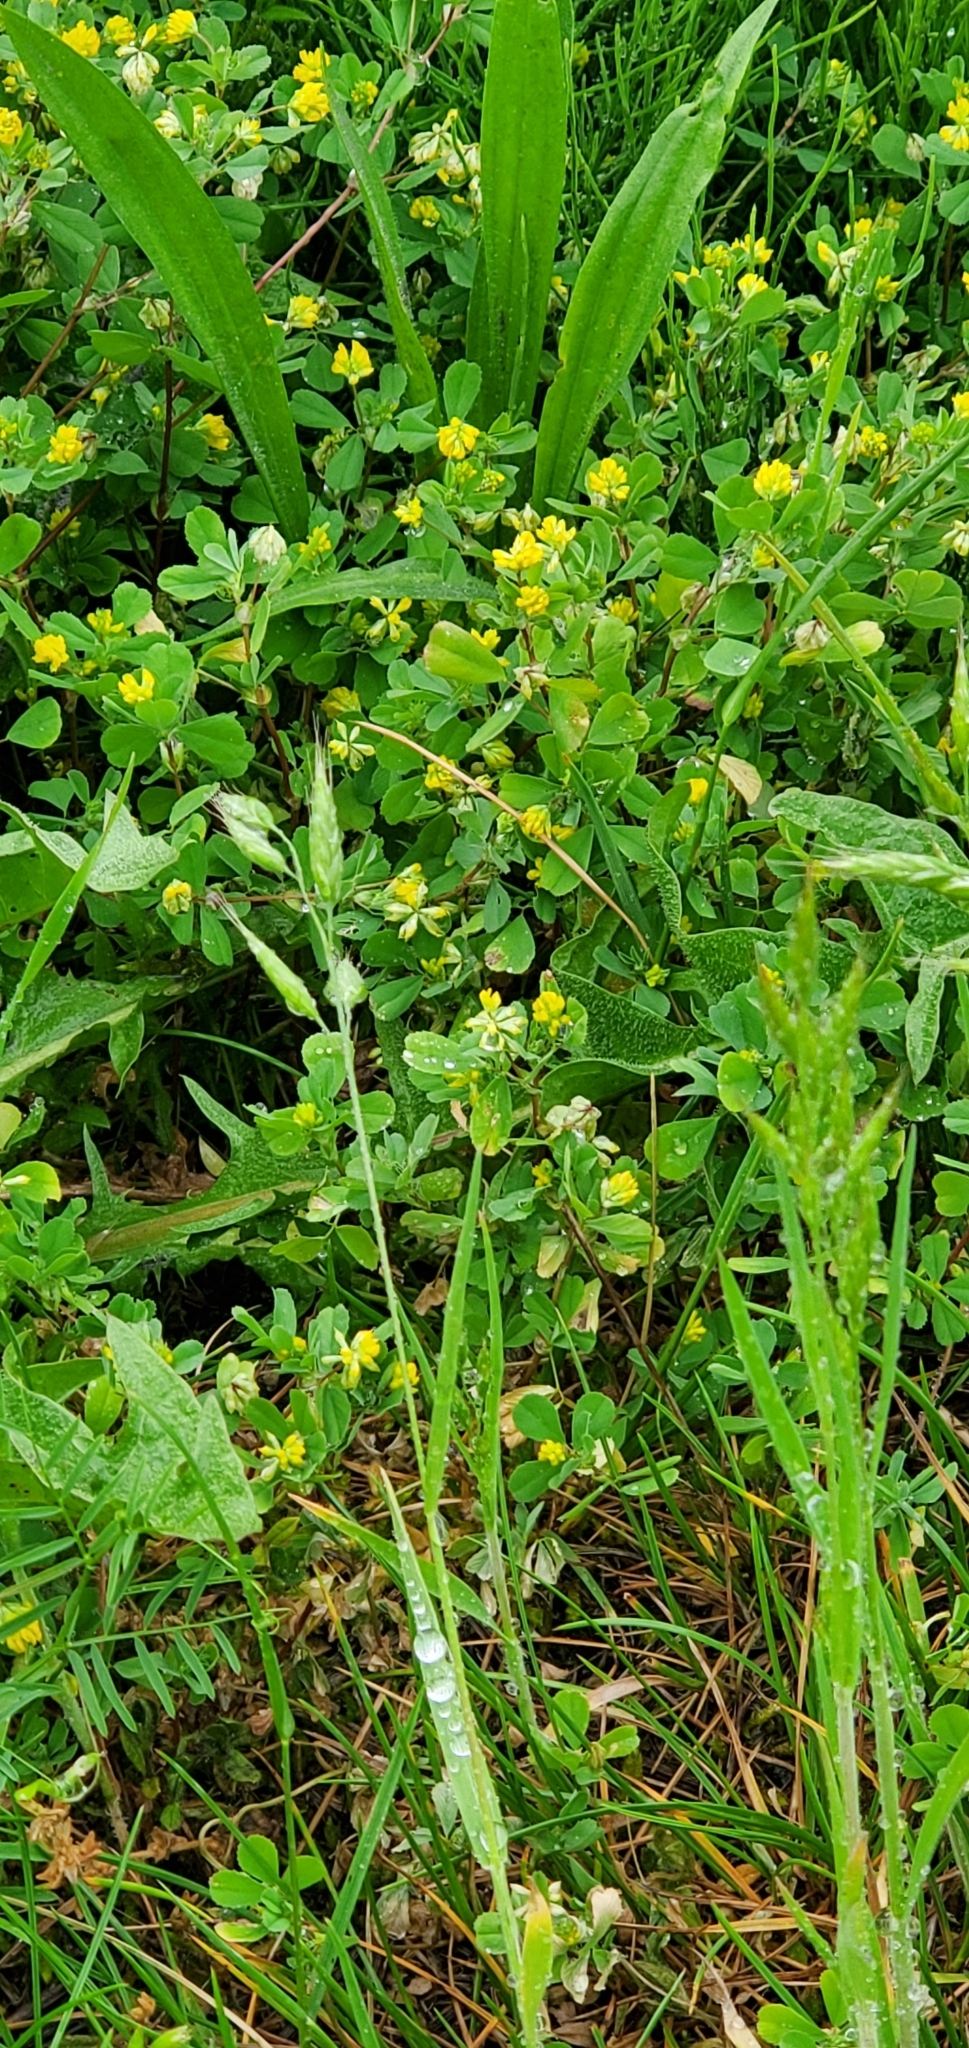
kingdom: Plantae
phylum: Tracheophyta
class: Magnoliopsida
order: Fabales
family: Fabaceae
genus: Trifolium
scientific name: Trifolium dubium
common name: Suckling clover
